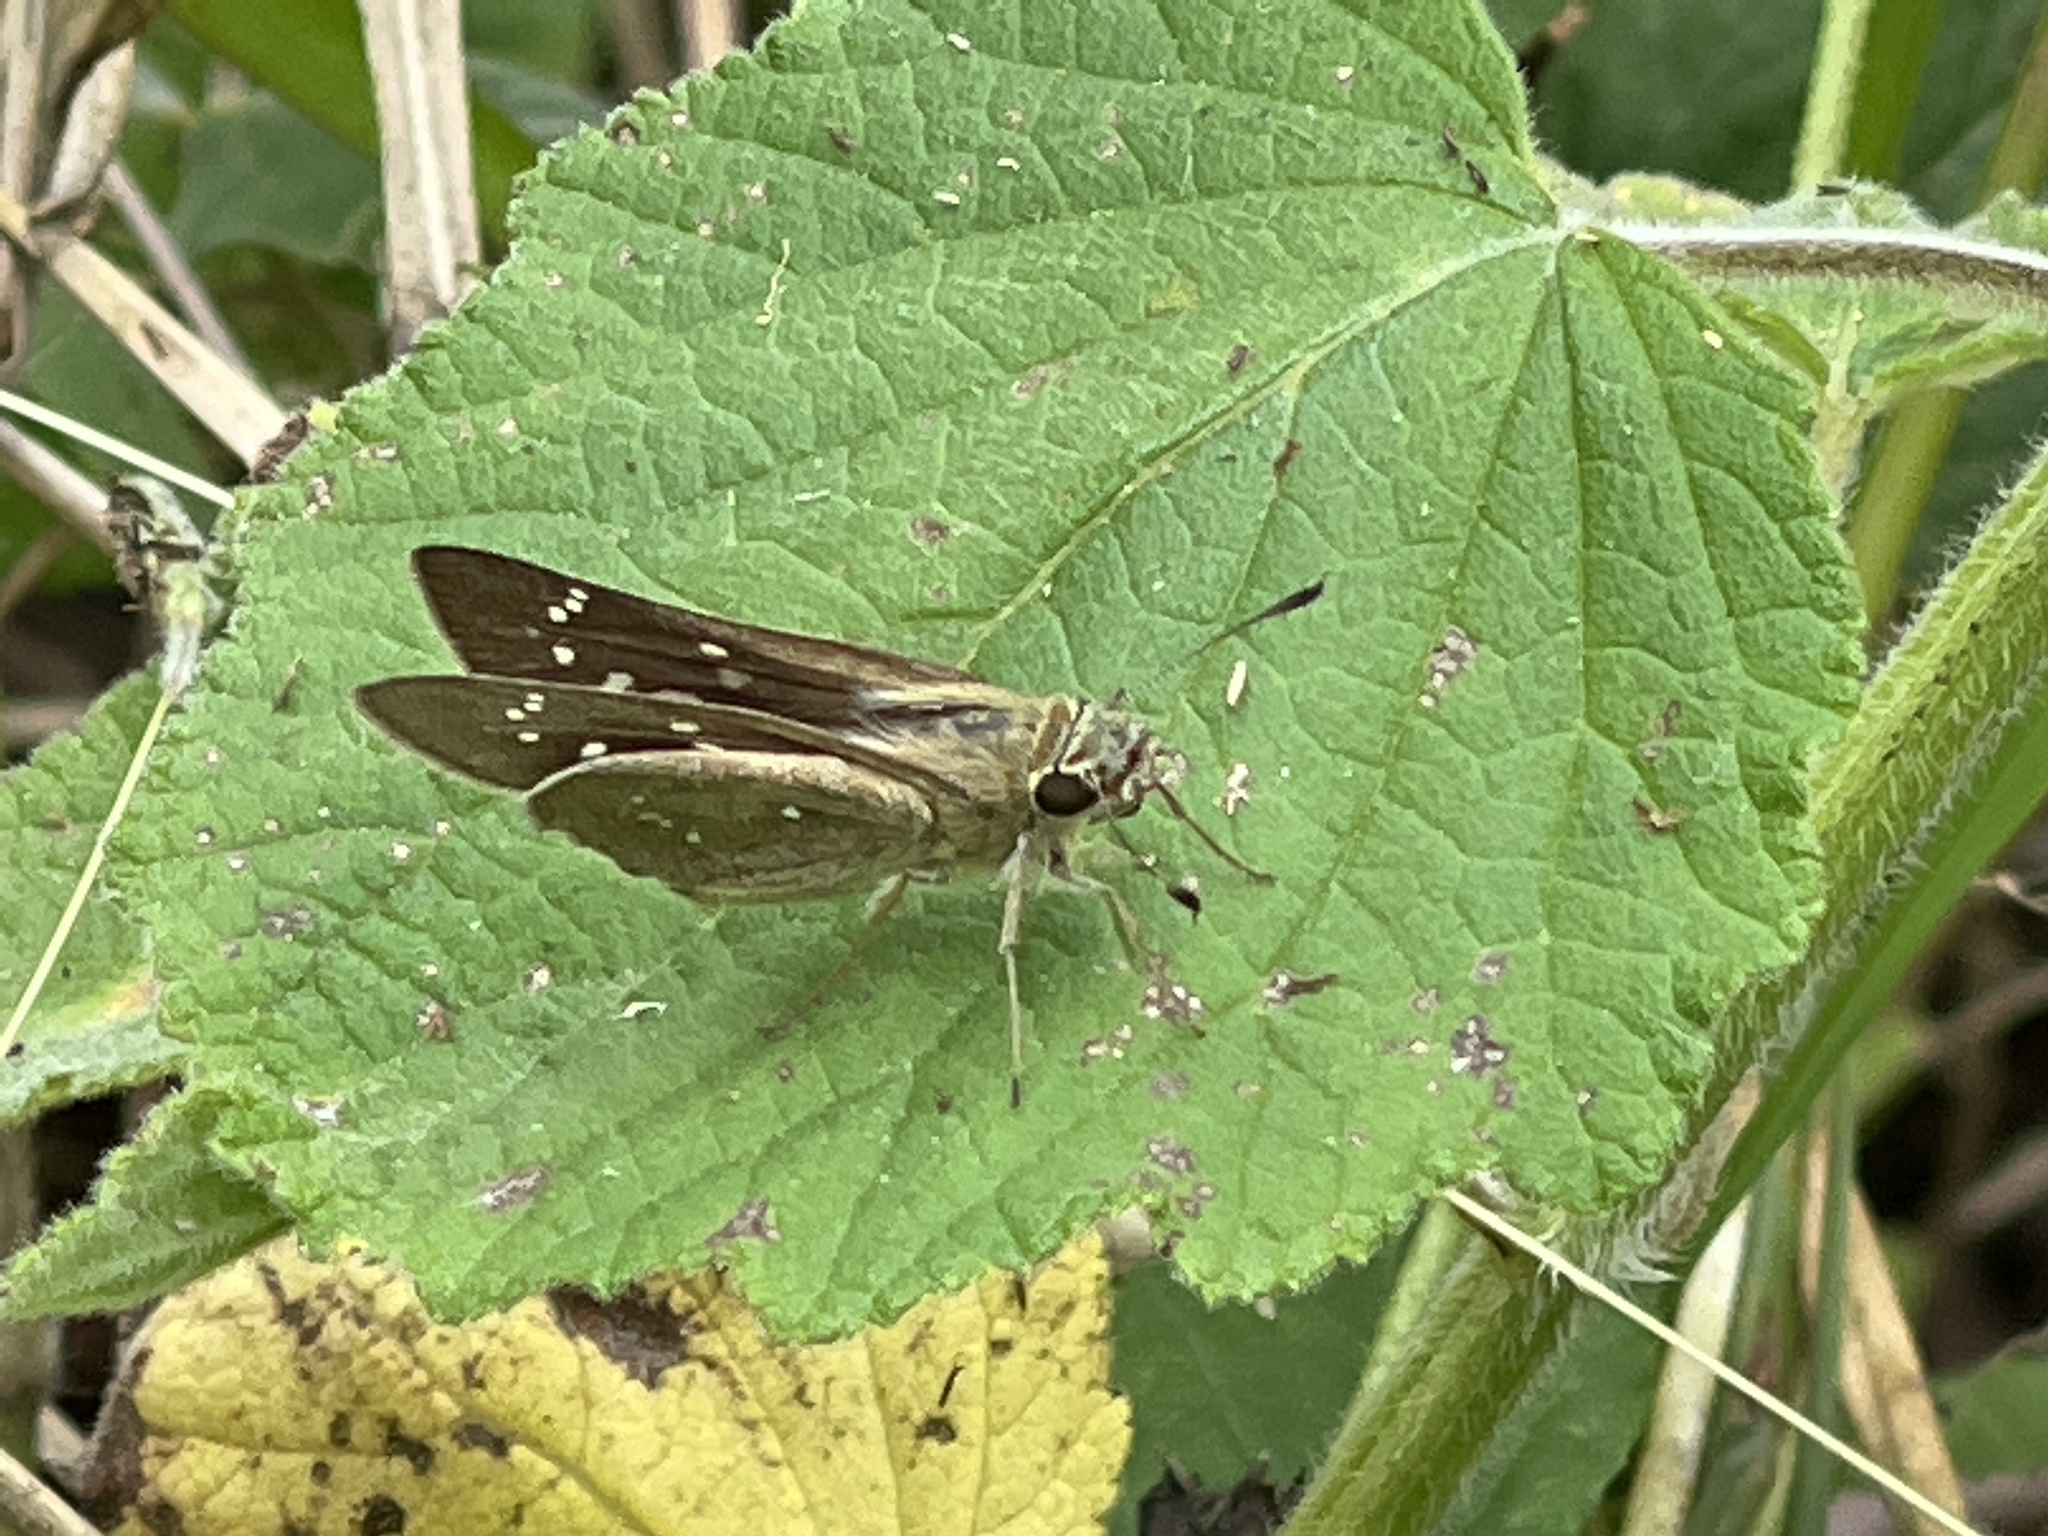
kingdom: Animalia
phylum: Arthropoda
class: Insecta
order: Lepidoptera
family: Hesperiidae
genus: Pelopidas
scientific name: Pelopidas agna
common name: Little branded swift
